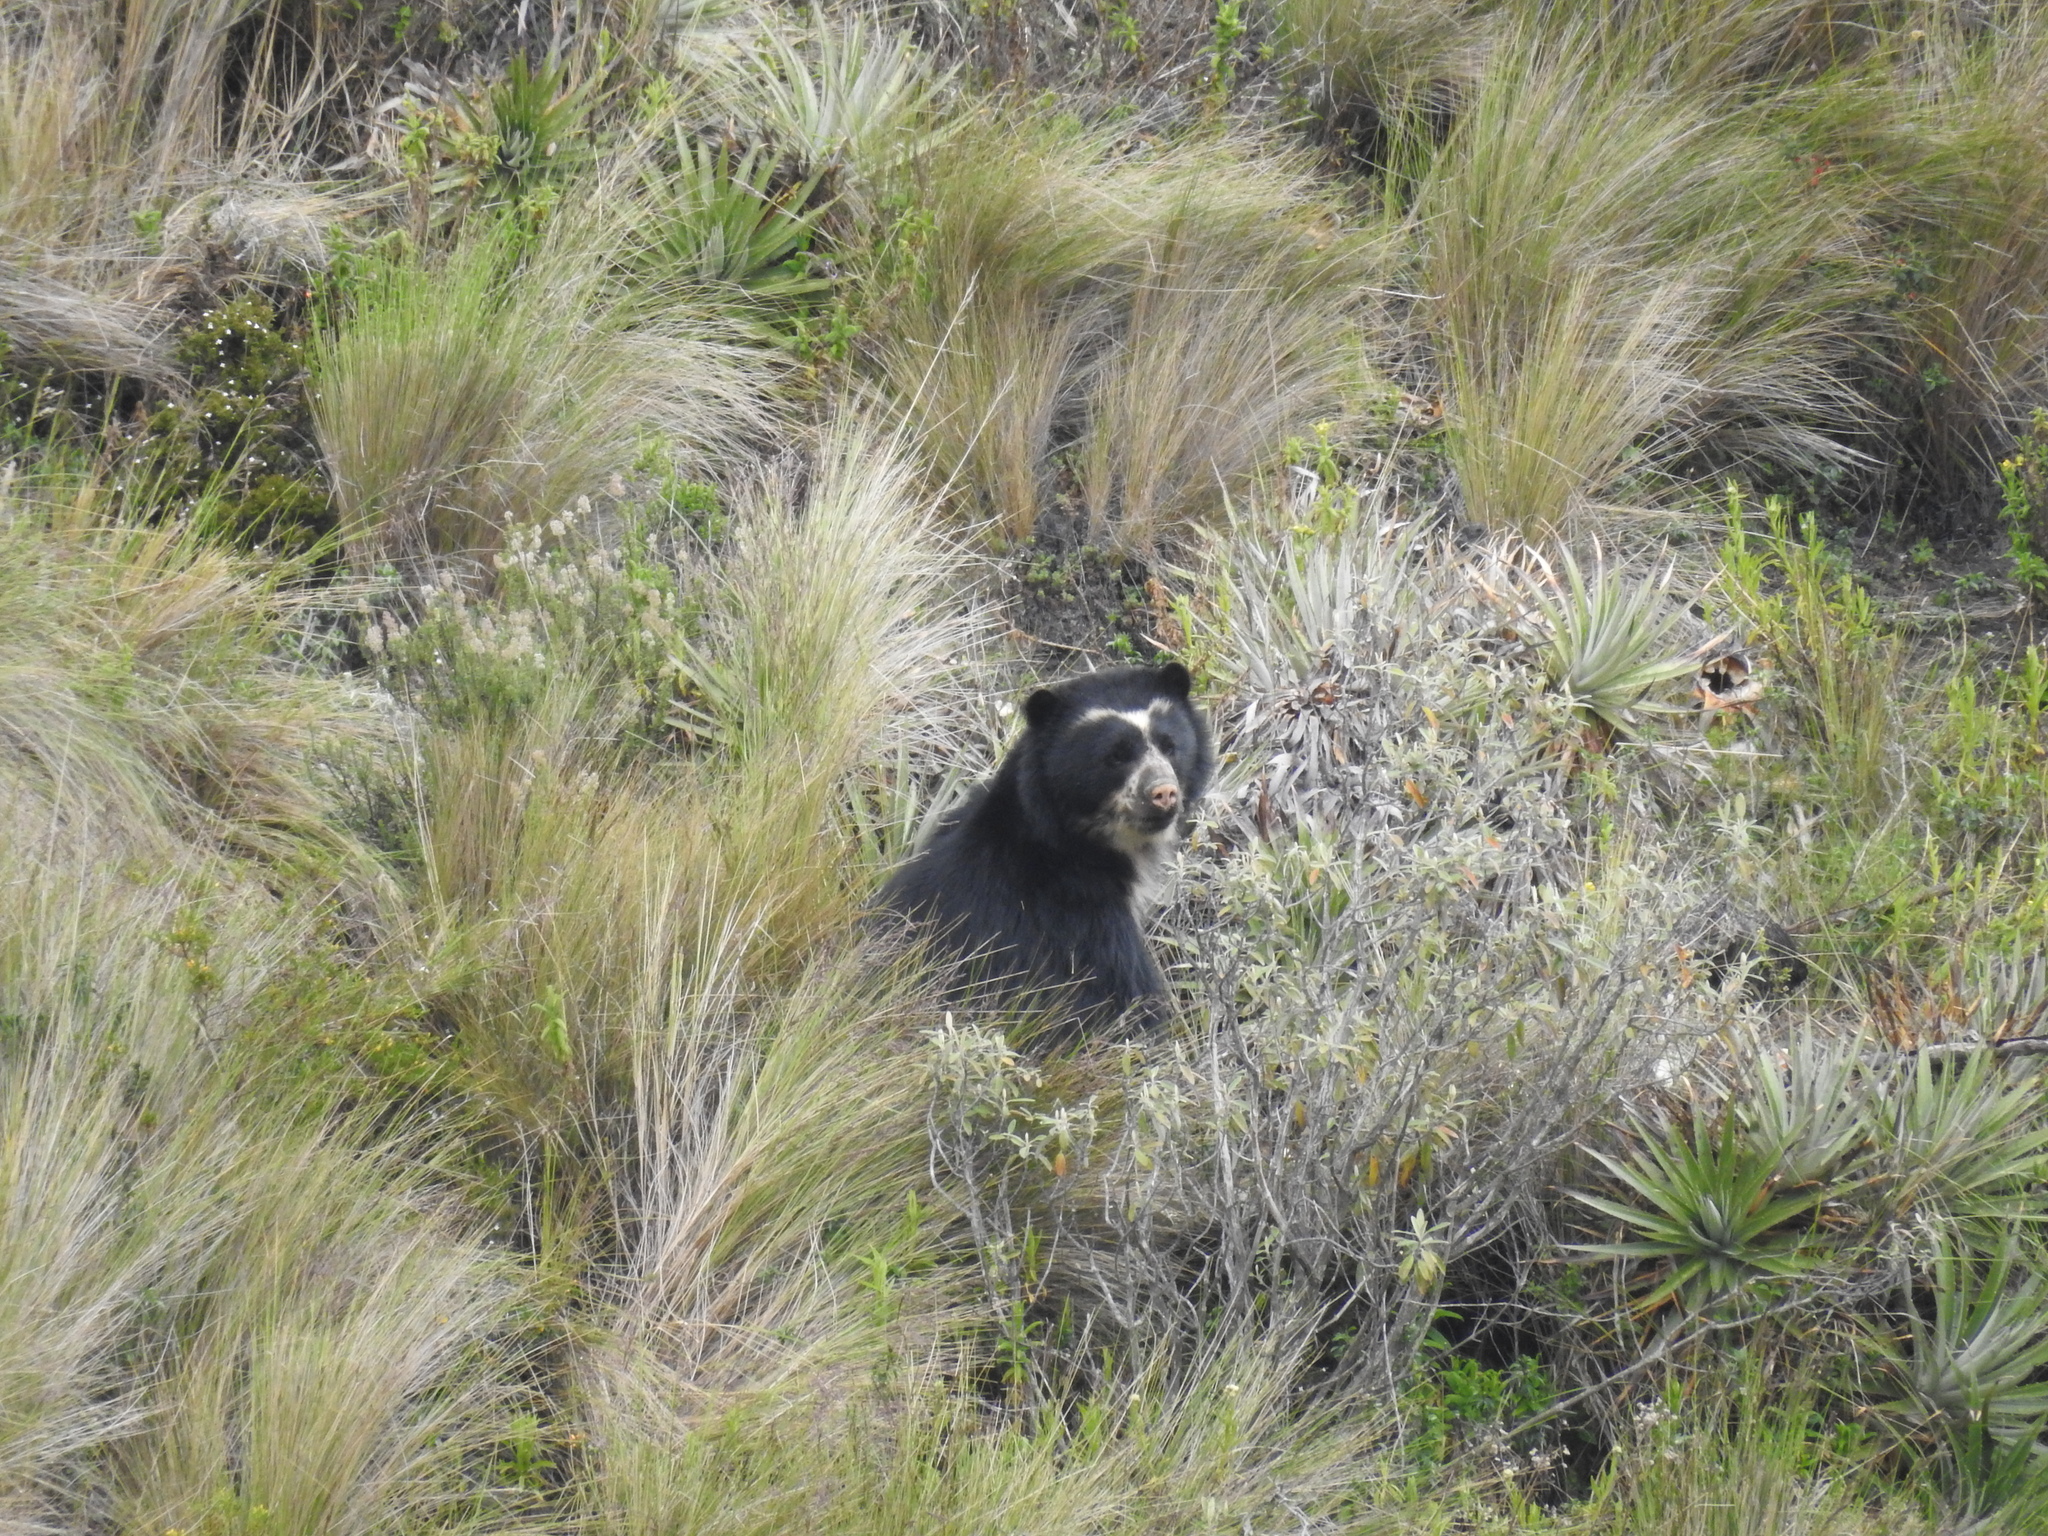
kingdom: Animalia
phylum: Chordata
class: Mammalia
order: Carnivora
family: Ursidae
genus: Tremarctos
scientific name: Tremarctos ornatus
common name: Spectacled bear
